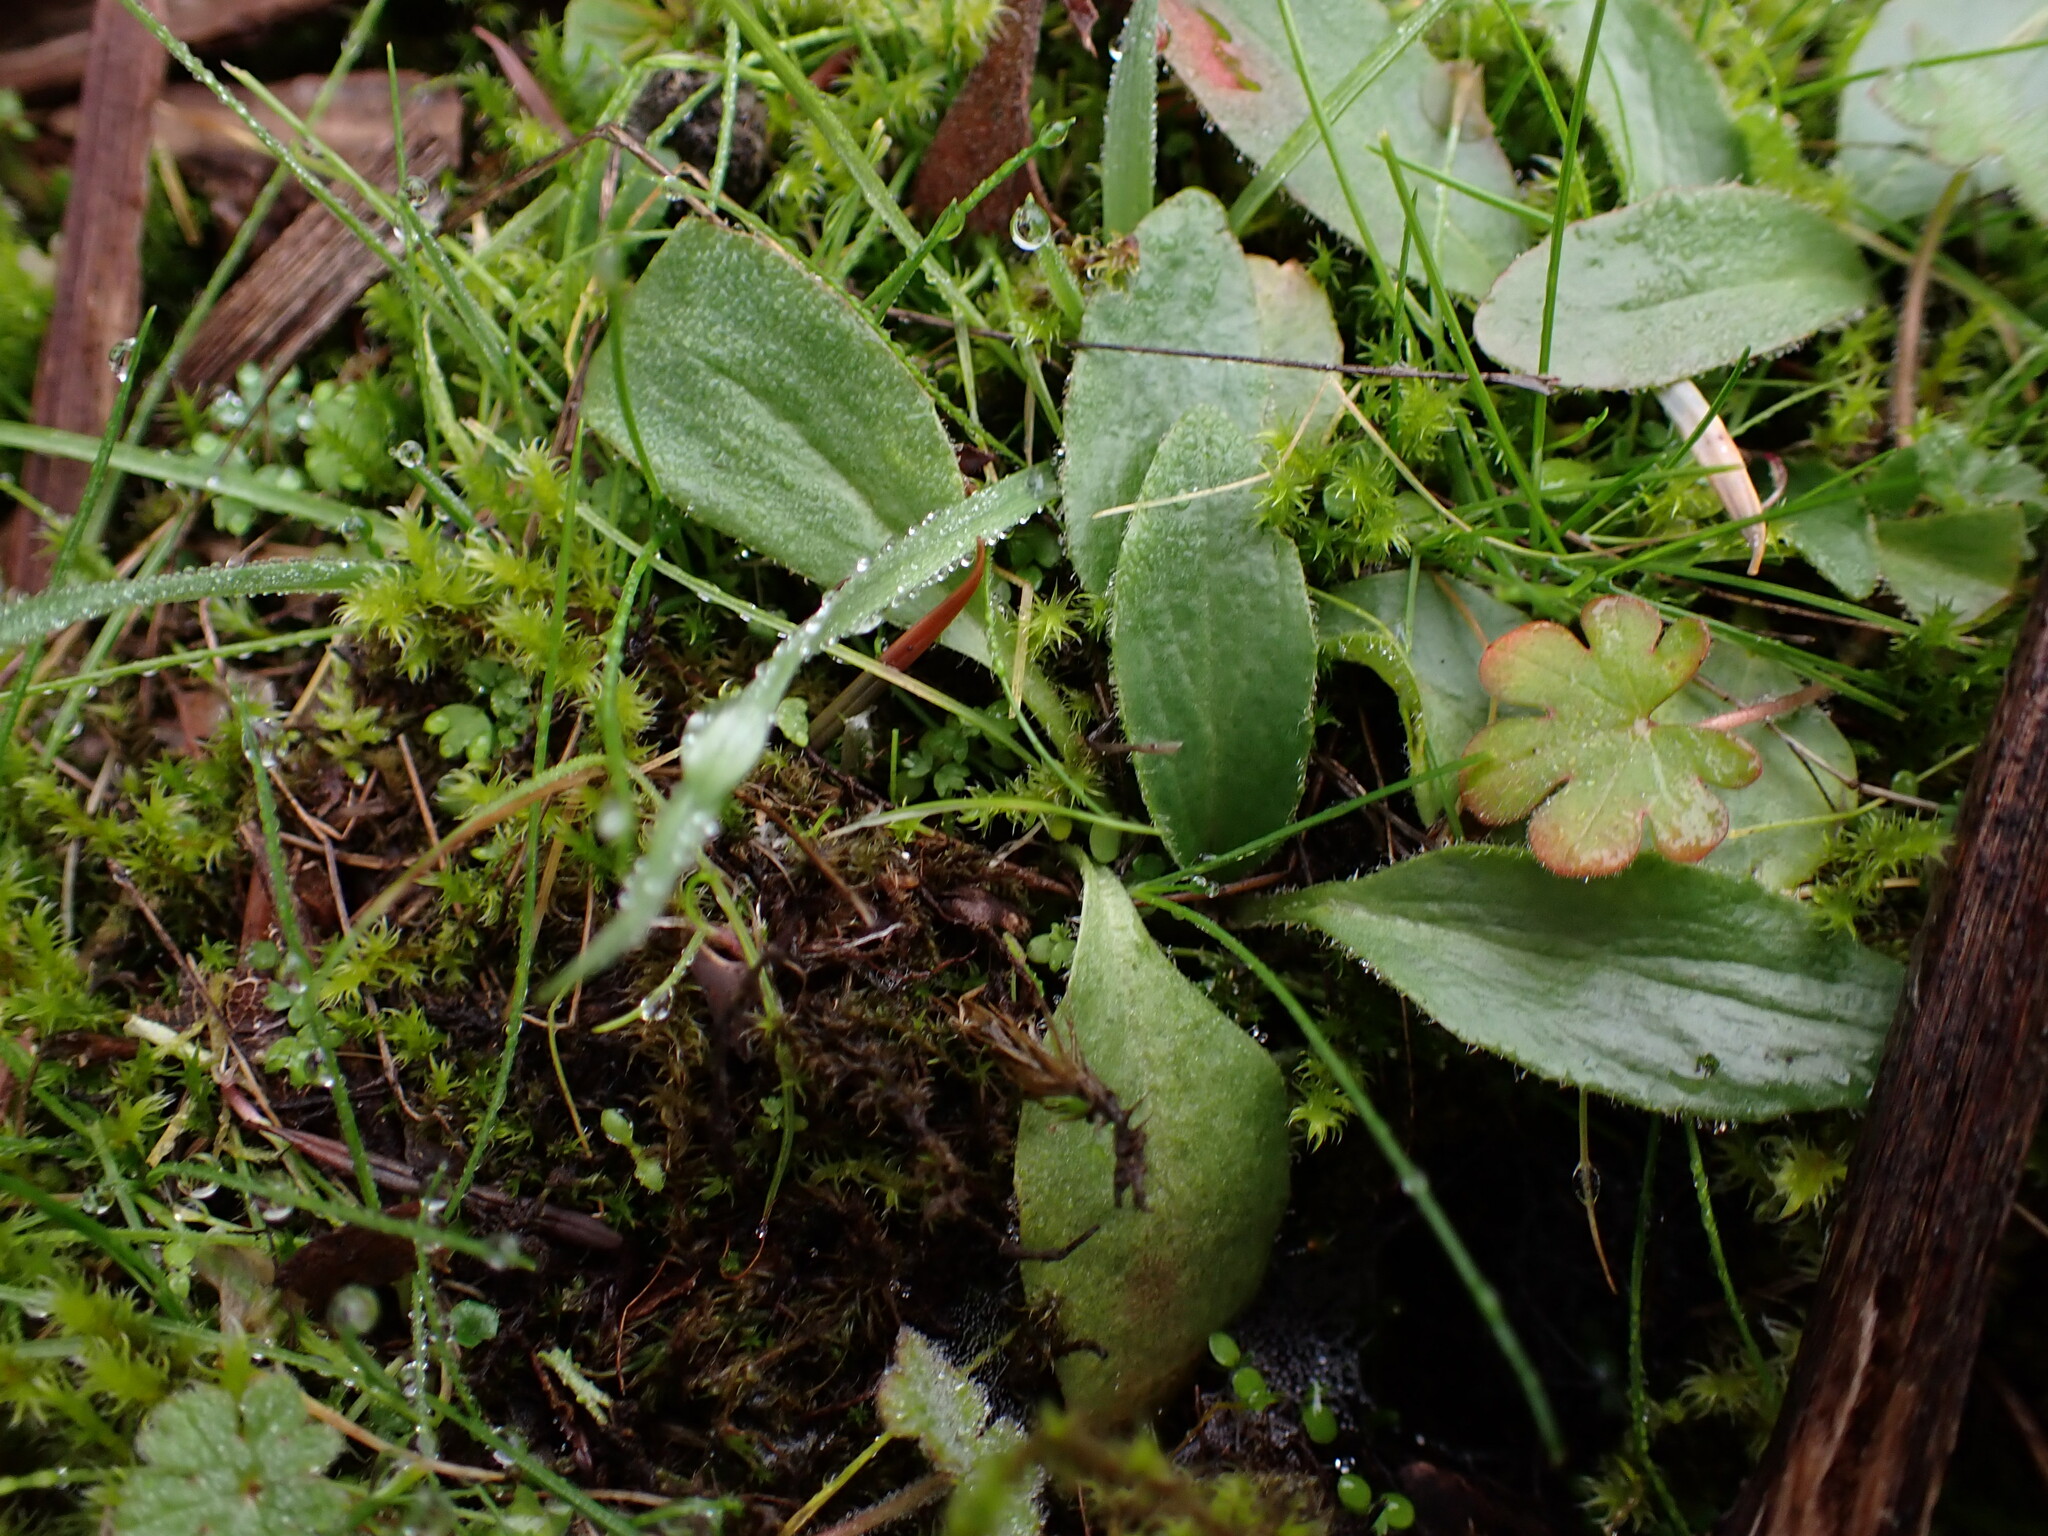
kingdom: Plantae
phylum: Tracheophyta
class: Magnoliopsida
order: Saxifragales
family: Saxifragaceae
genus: Micranthes
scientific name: Micranthes integrifolia
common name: Wholeleaf saxifrage
